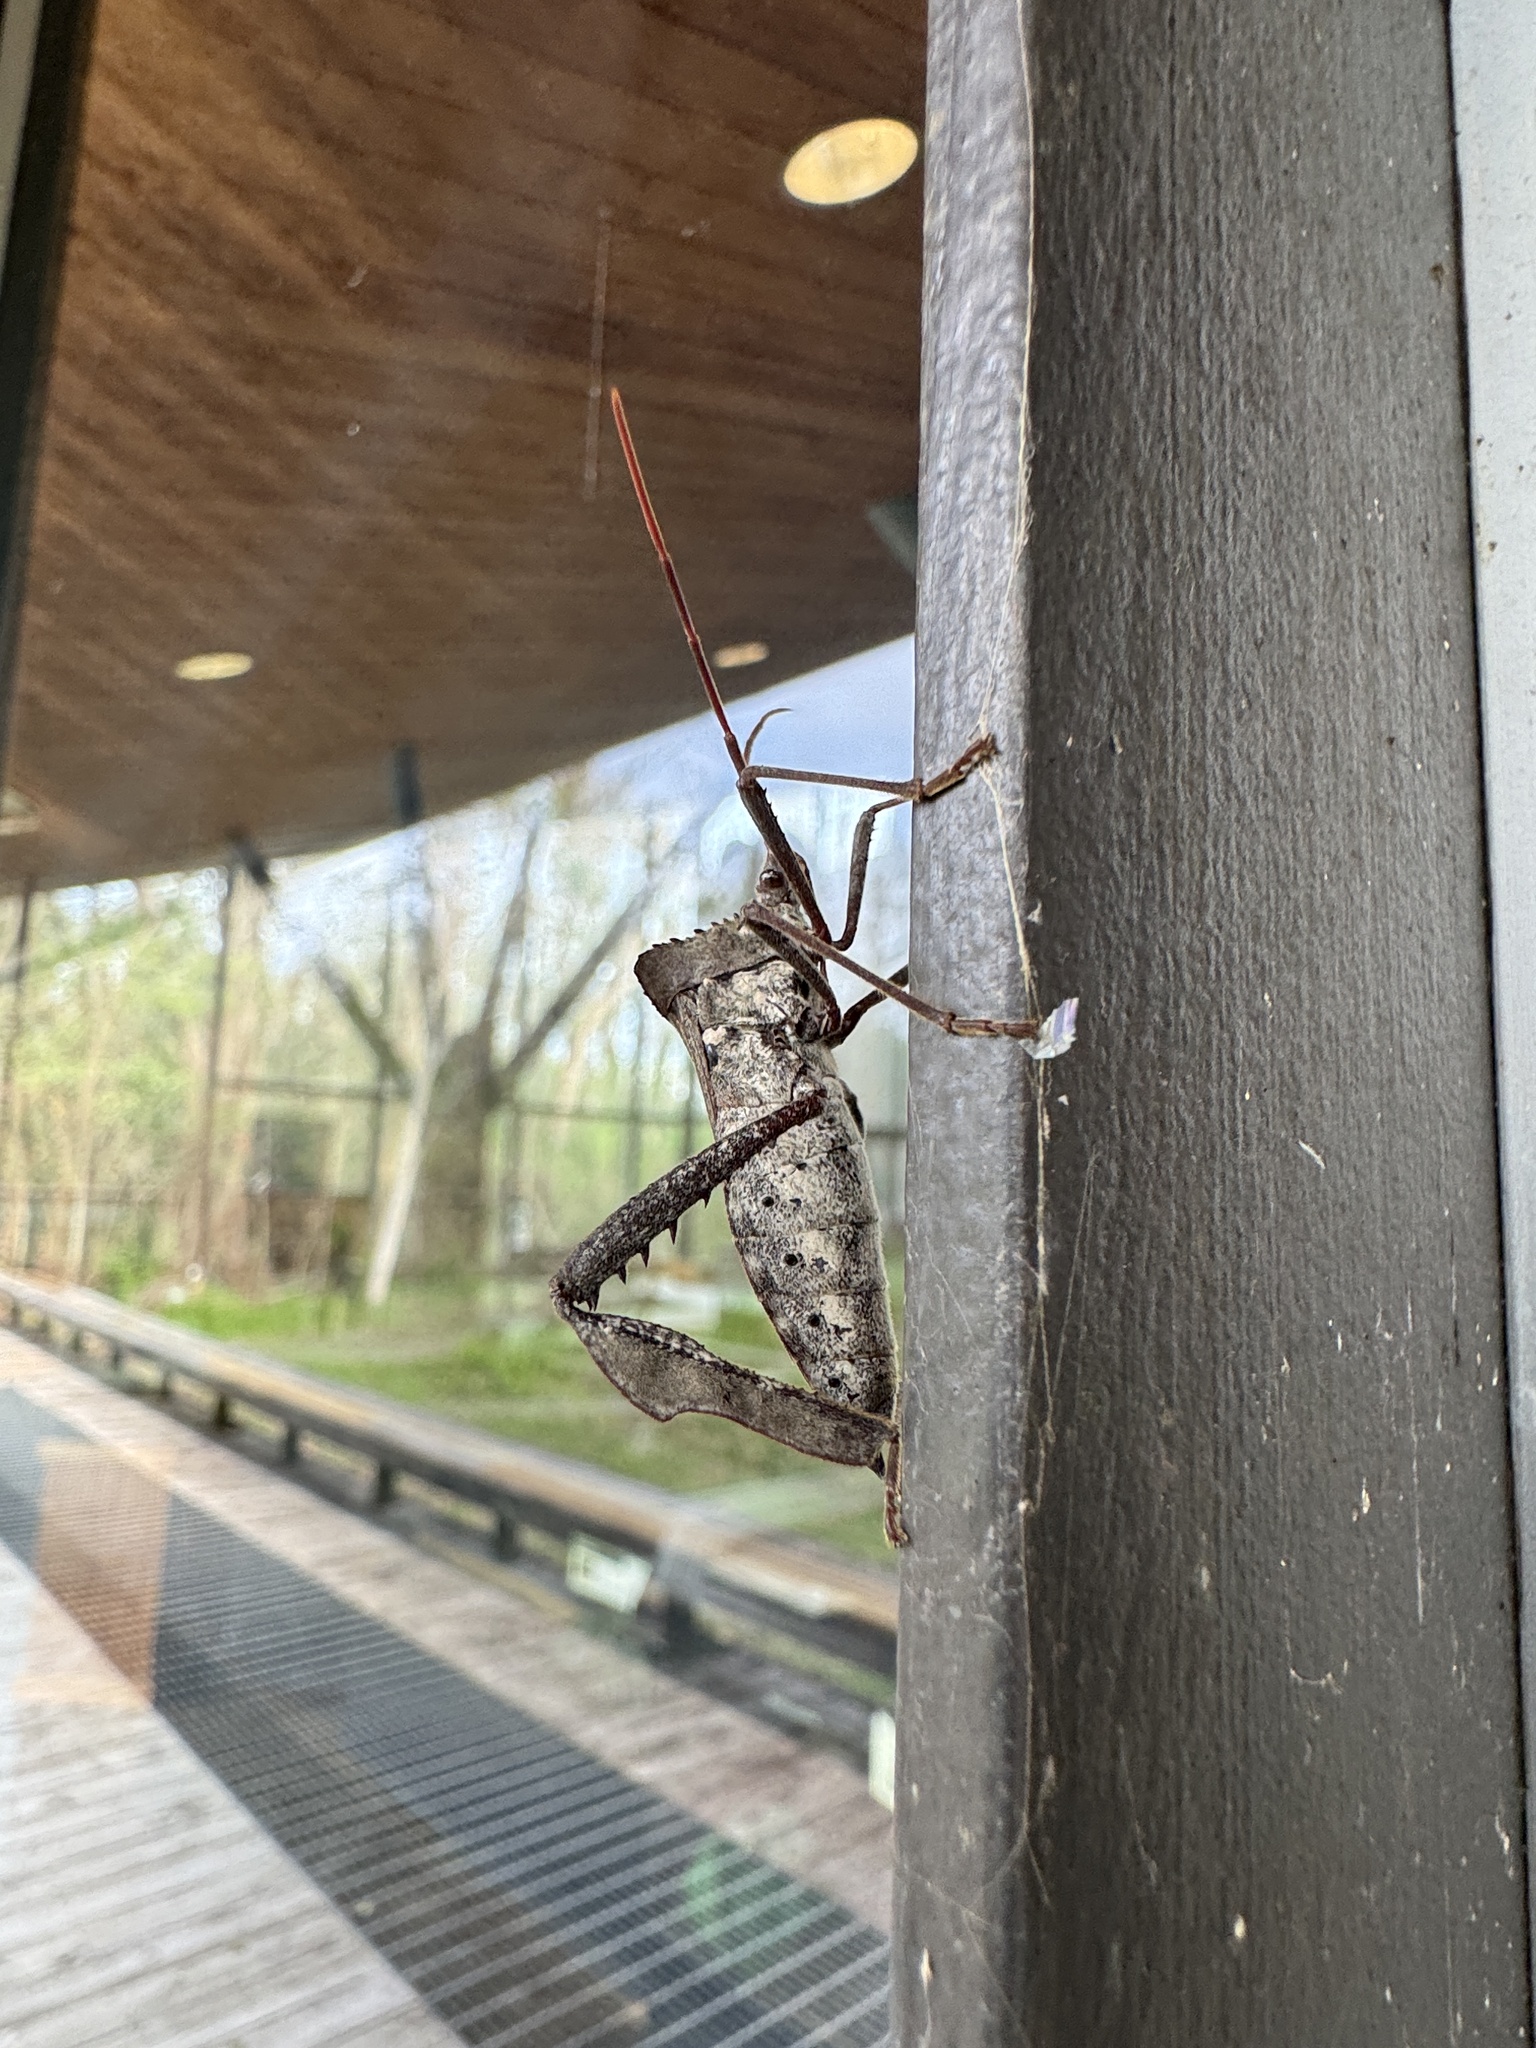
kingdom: Animalia
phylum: Arthropoda
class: Insecta
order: Hemiptera
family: Coreidae
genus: Acanthocephala
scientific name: Acanthocephala declivis
